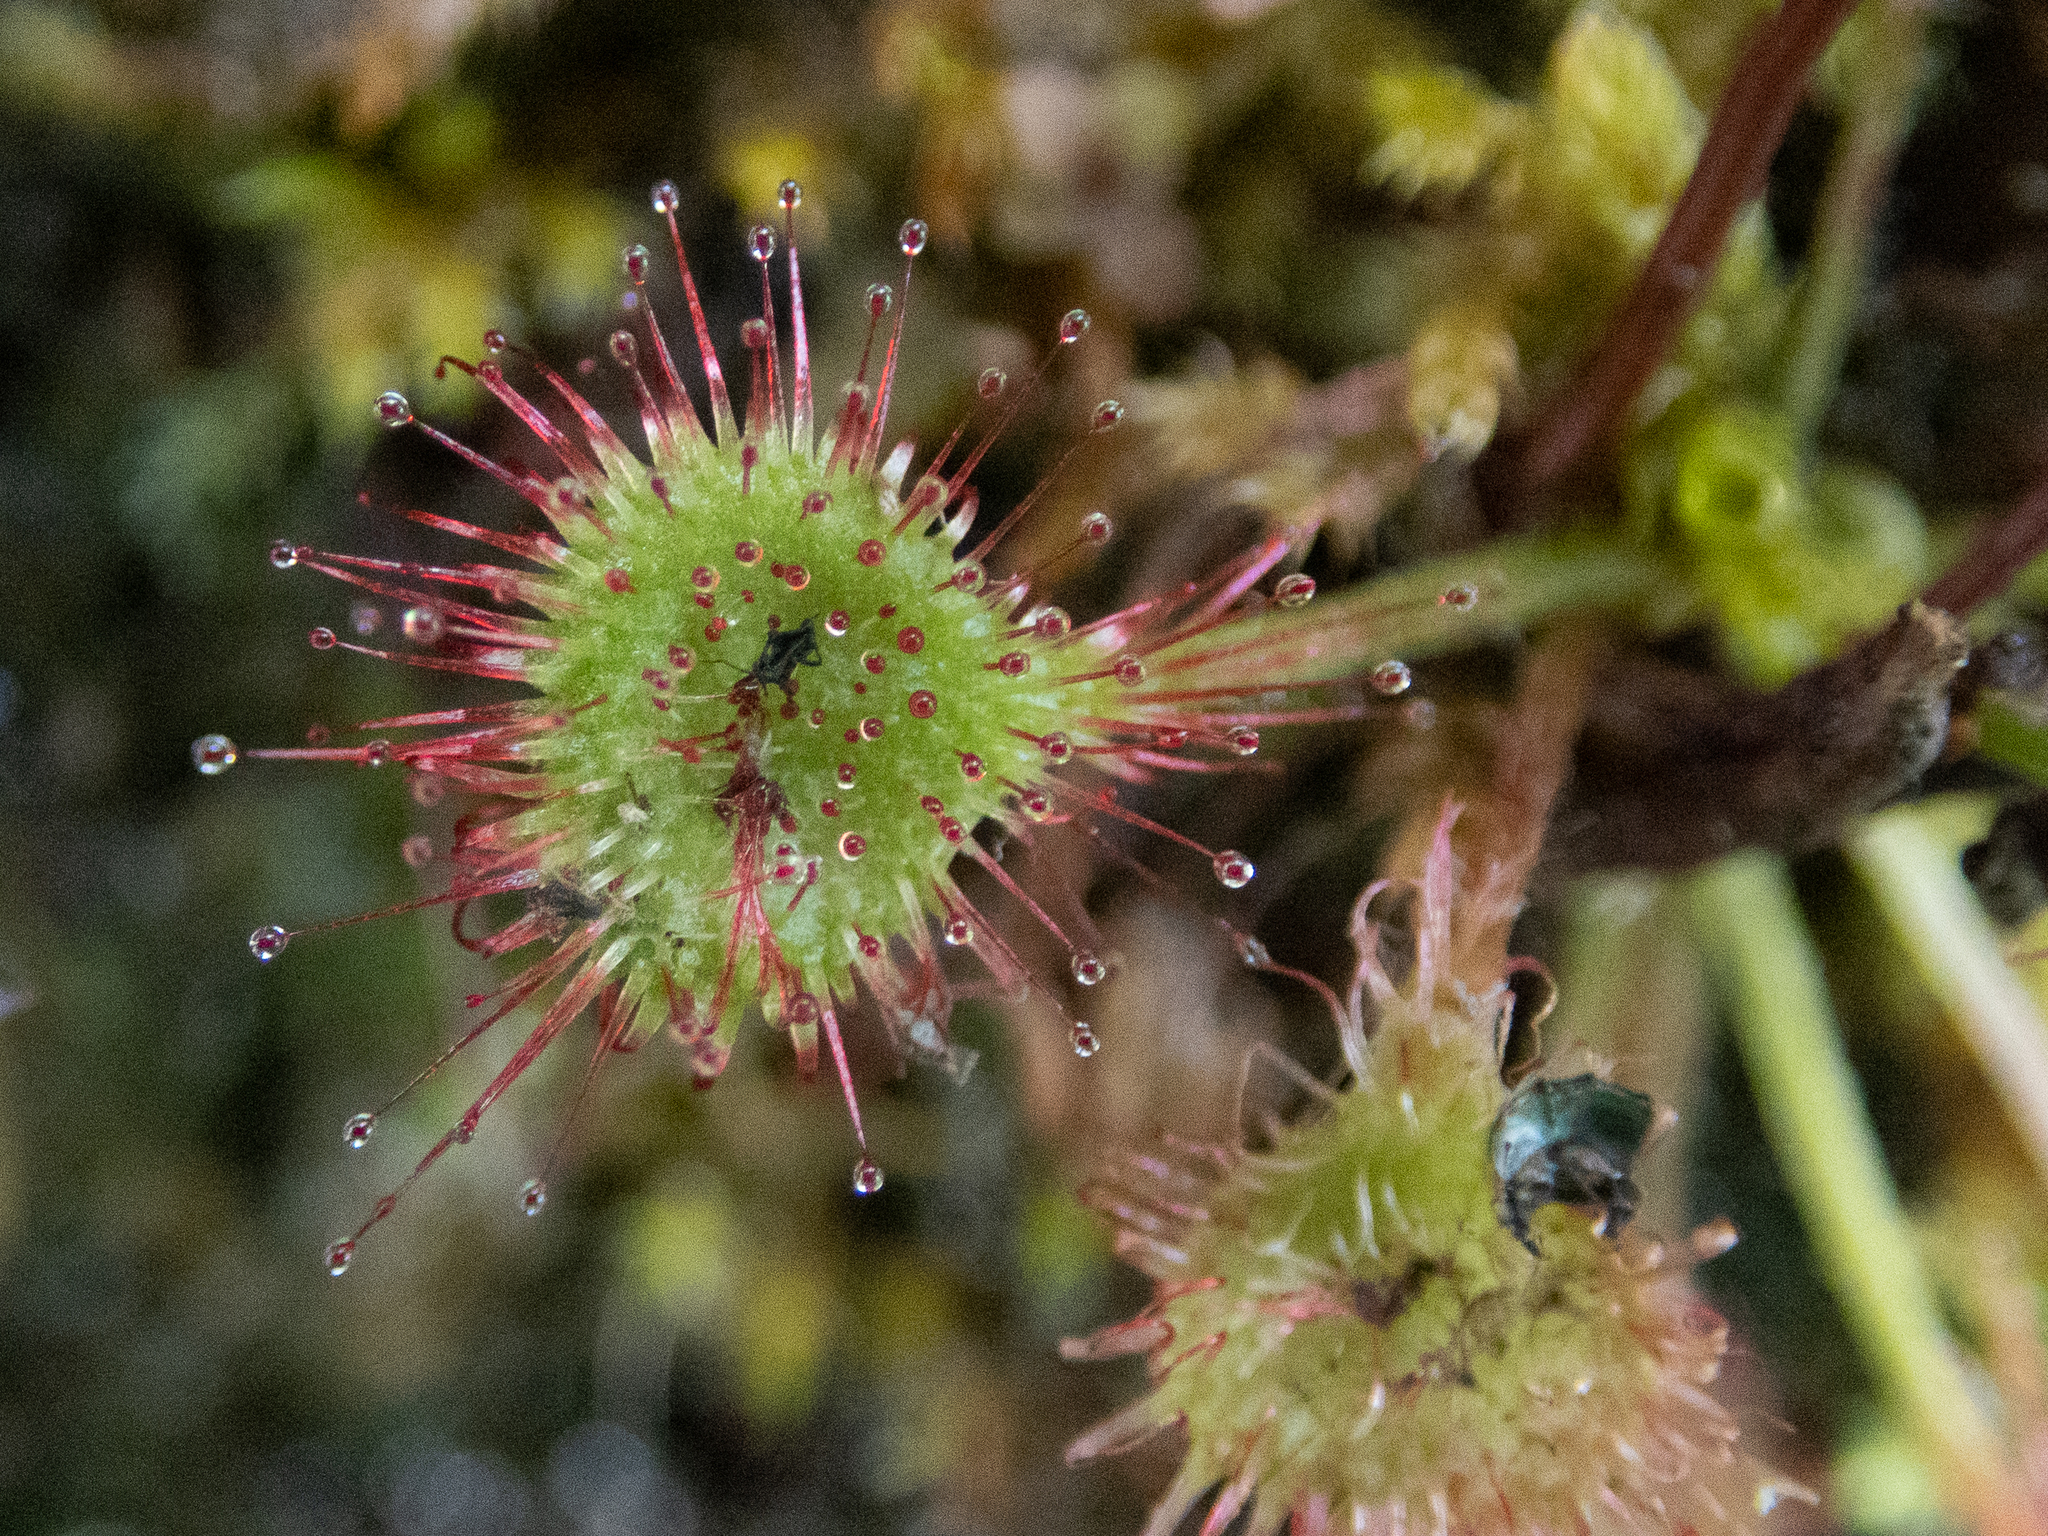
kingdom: Plantae
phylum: Tracheophyta
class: Magnoliopsida
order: Caryophyllales
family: Droseraceae
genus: Drosera
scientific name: Drosera rotundifolia
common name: Round-leaved sundew
